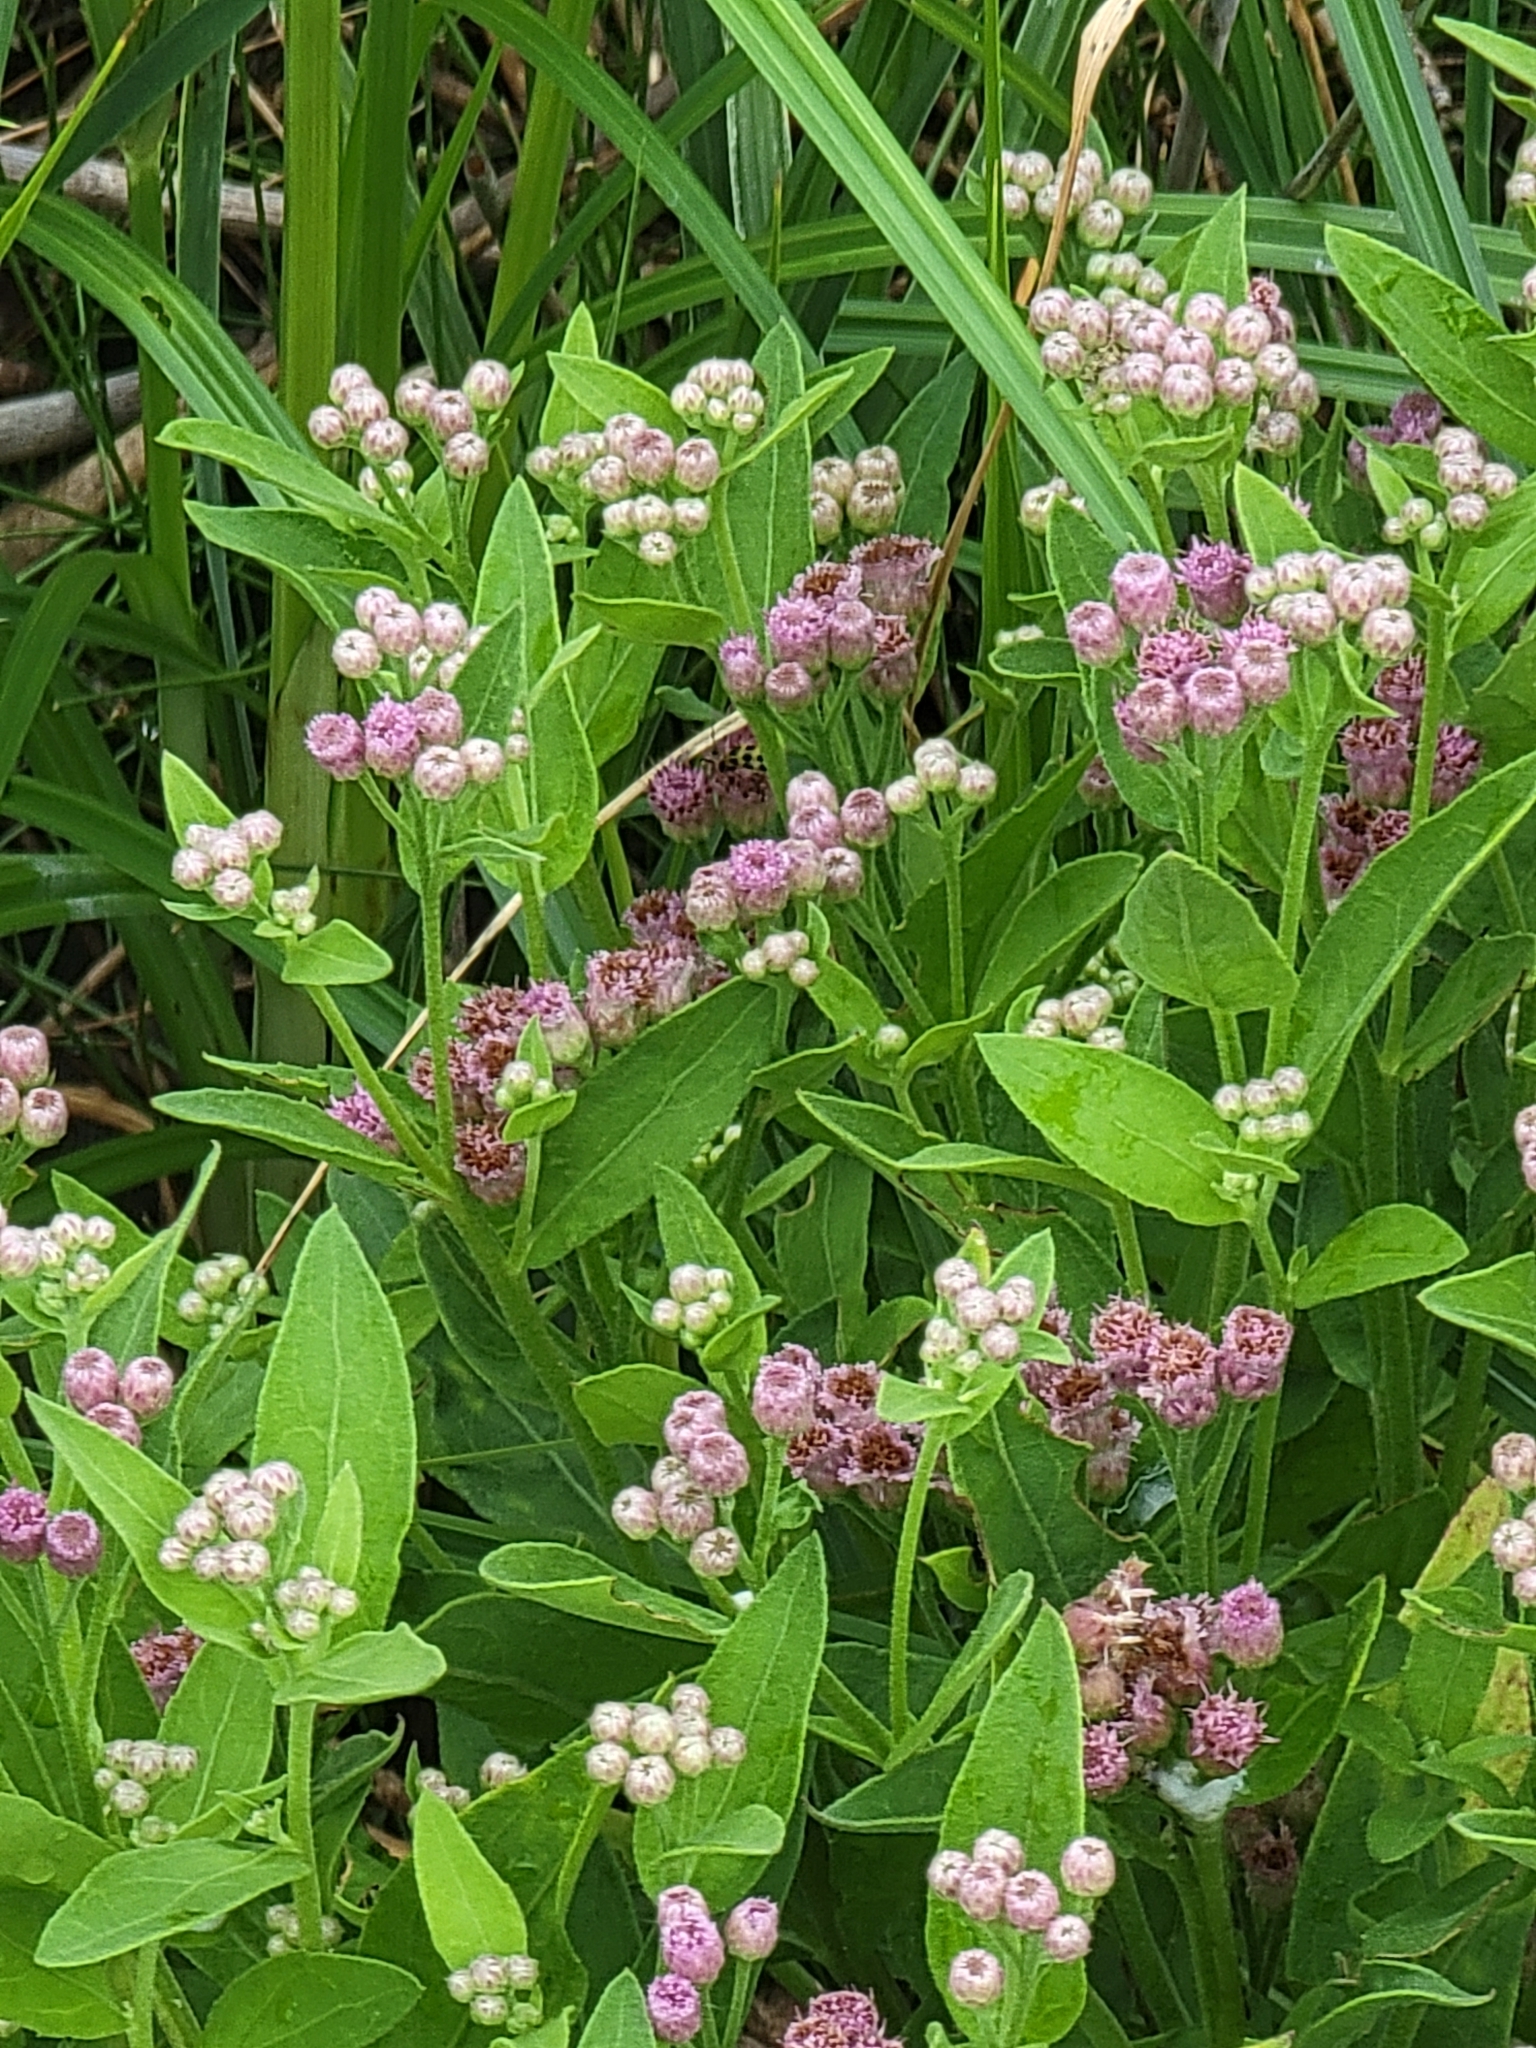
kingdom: Plantae
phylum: Tracheophyta
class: Magnoliopsida
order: Asterales
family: Asteraceae
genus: Pluchea
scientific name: Pluchea odorata
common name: Saltmarsh fleabane
